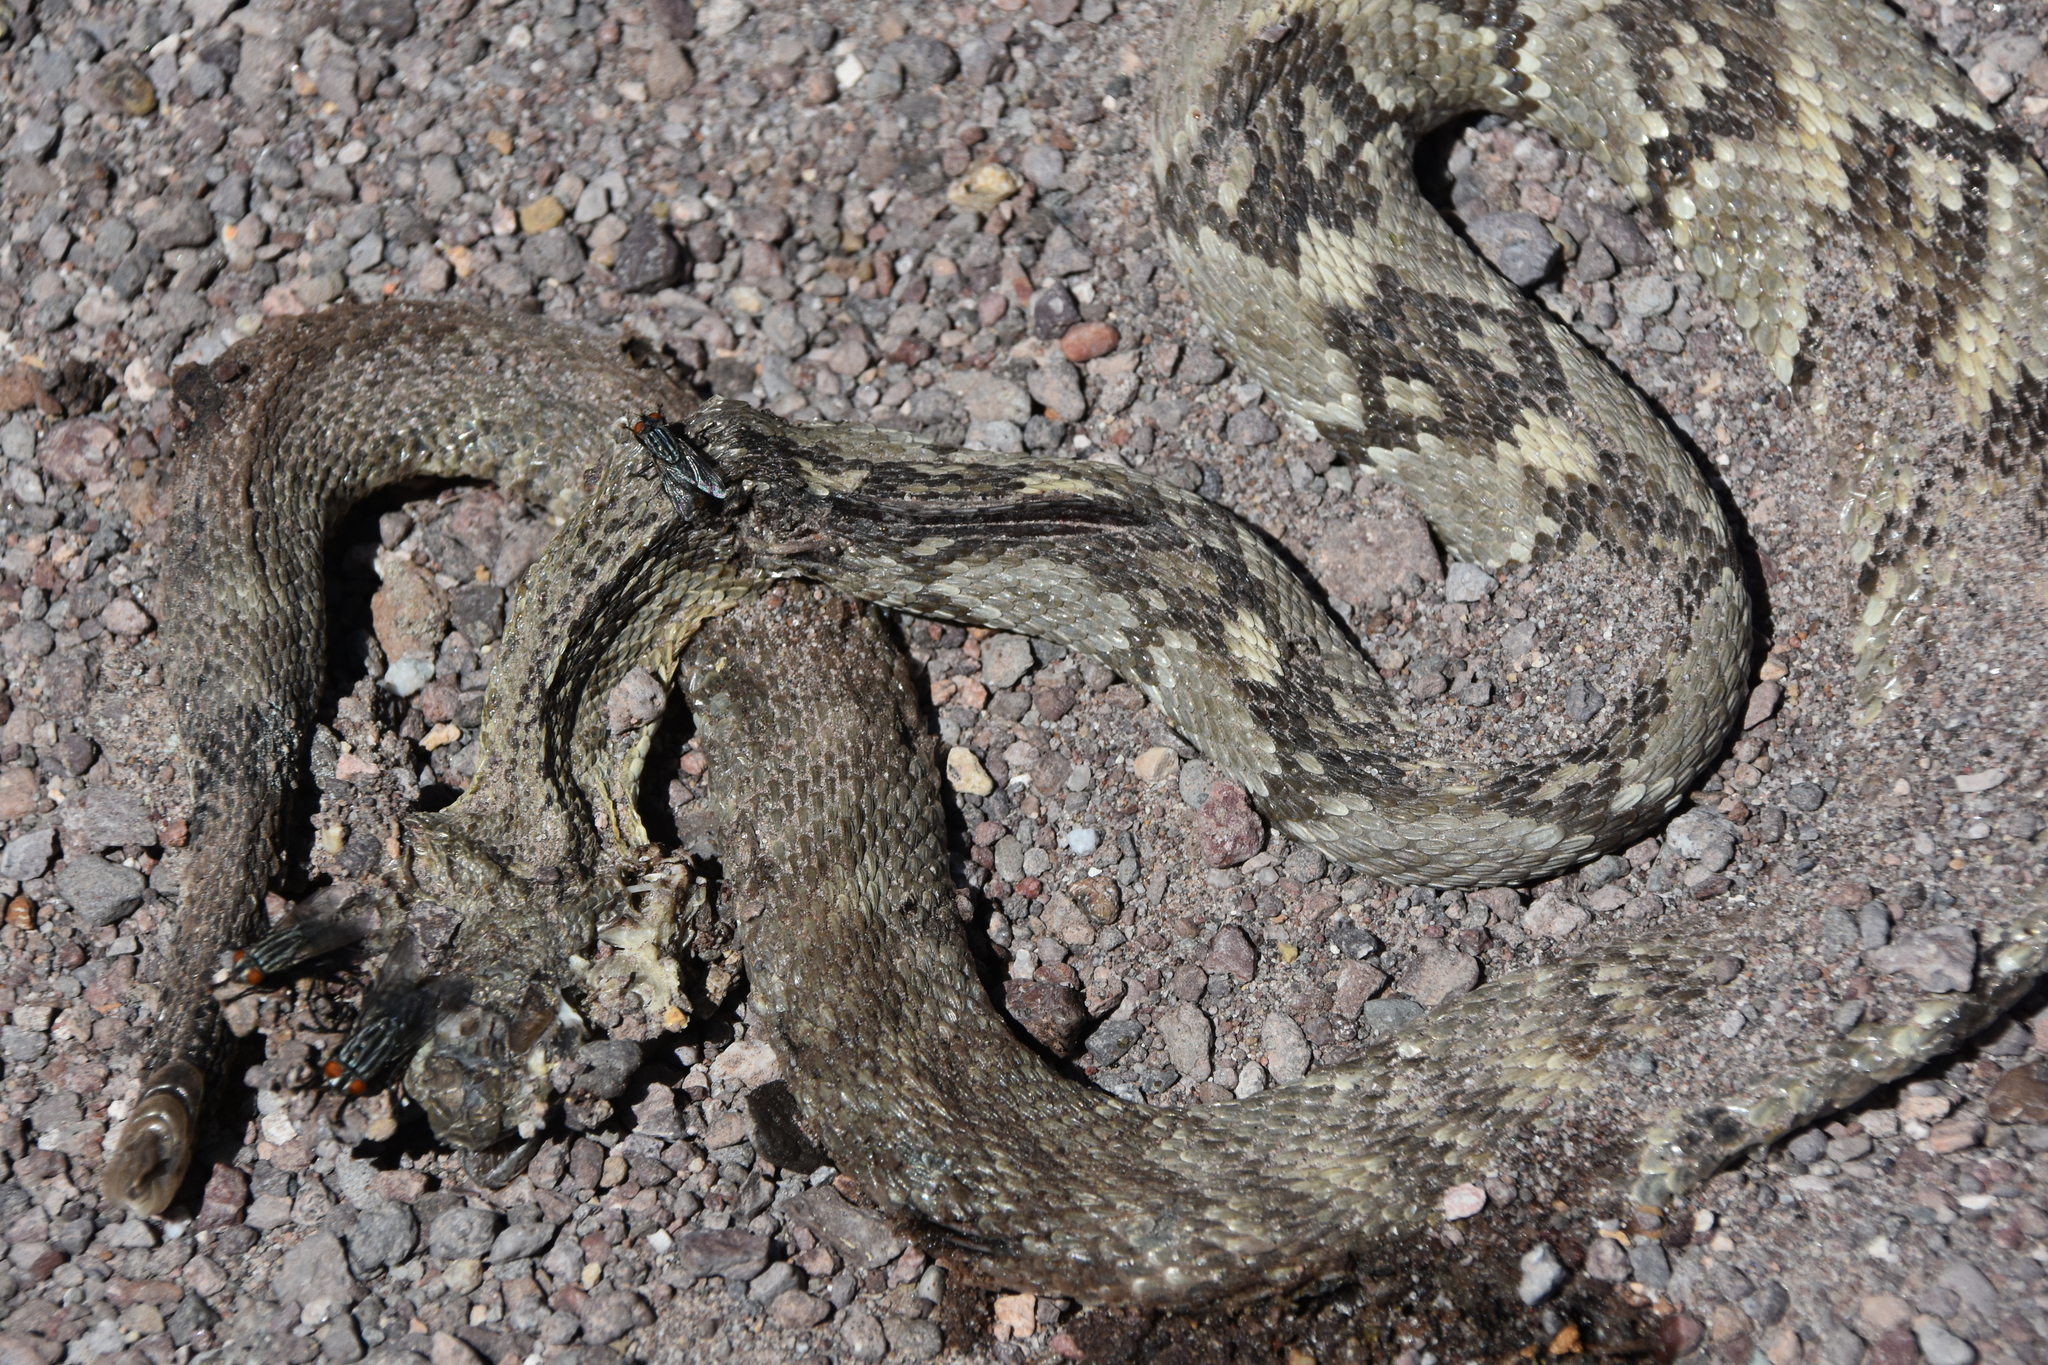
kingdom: Animalia
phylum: Chordata
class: Squamata
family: Viperidae
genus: Crotalus
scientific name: Crotalus ornatus
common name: Black-tailed rattlesnake
